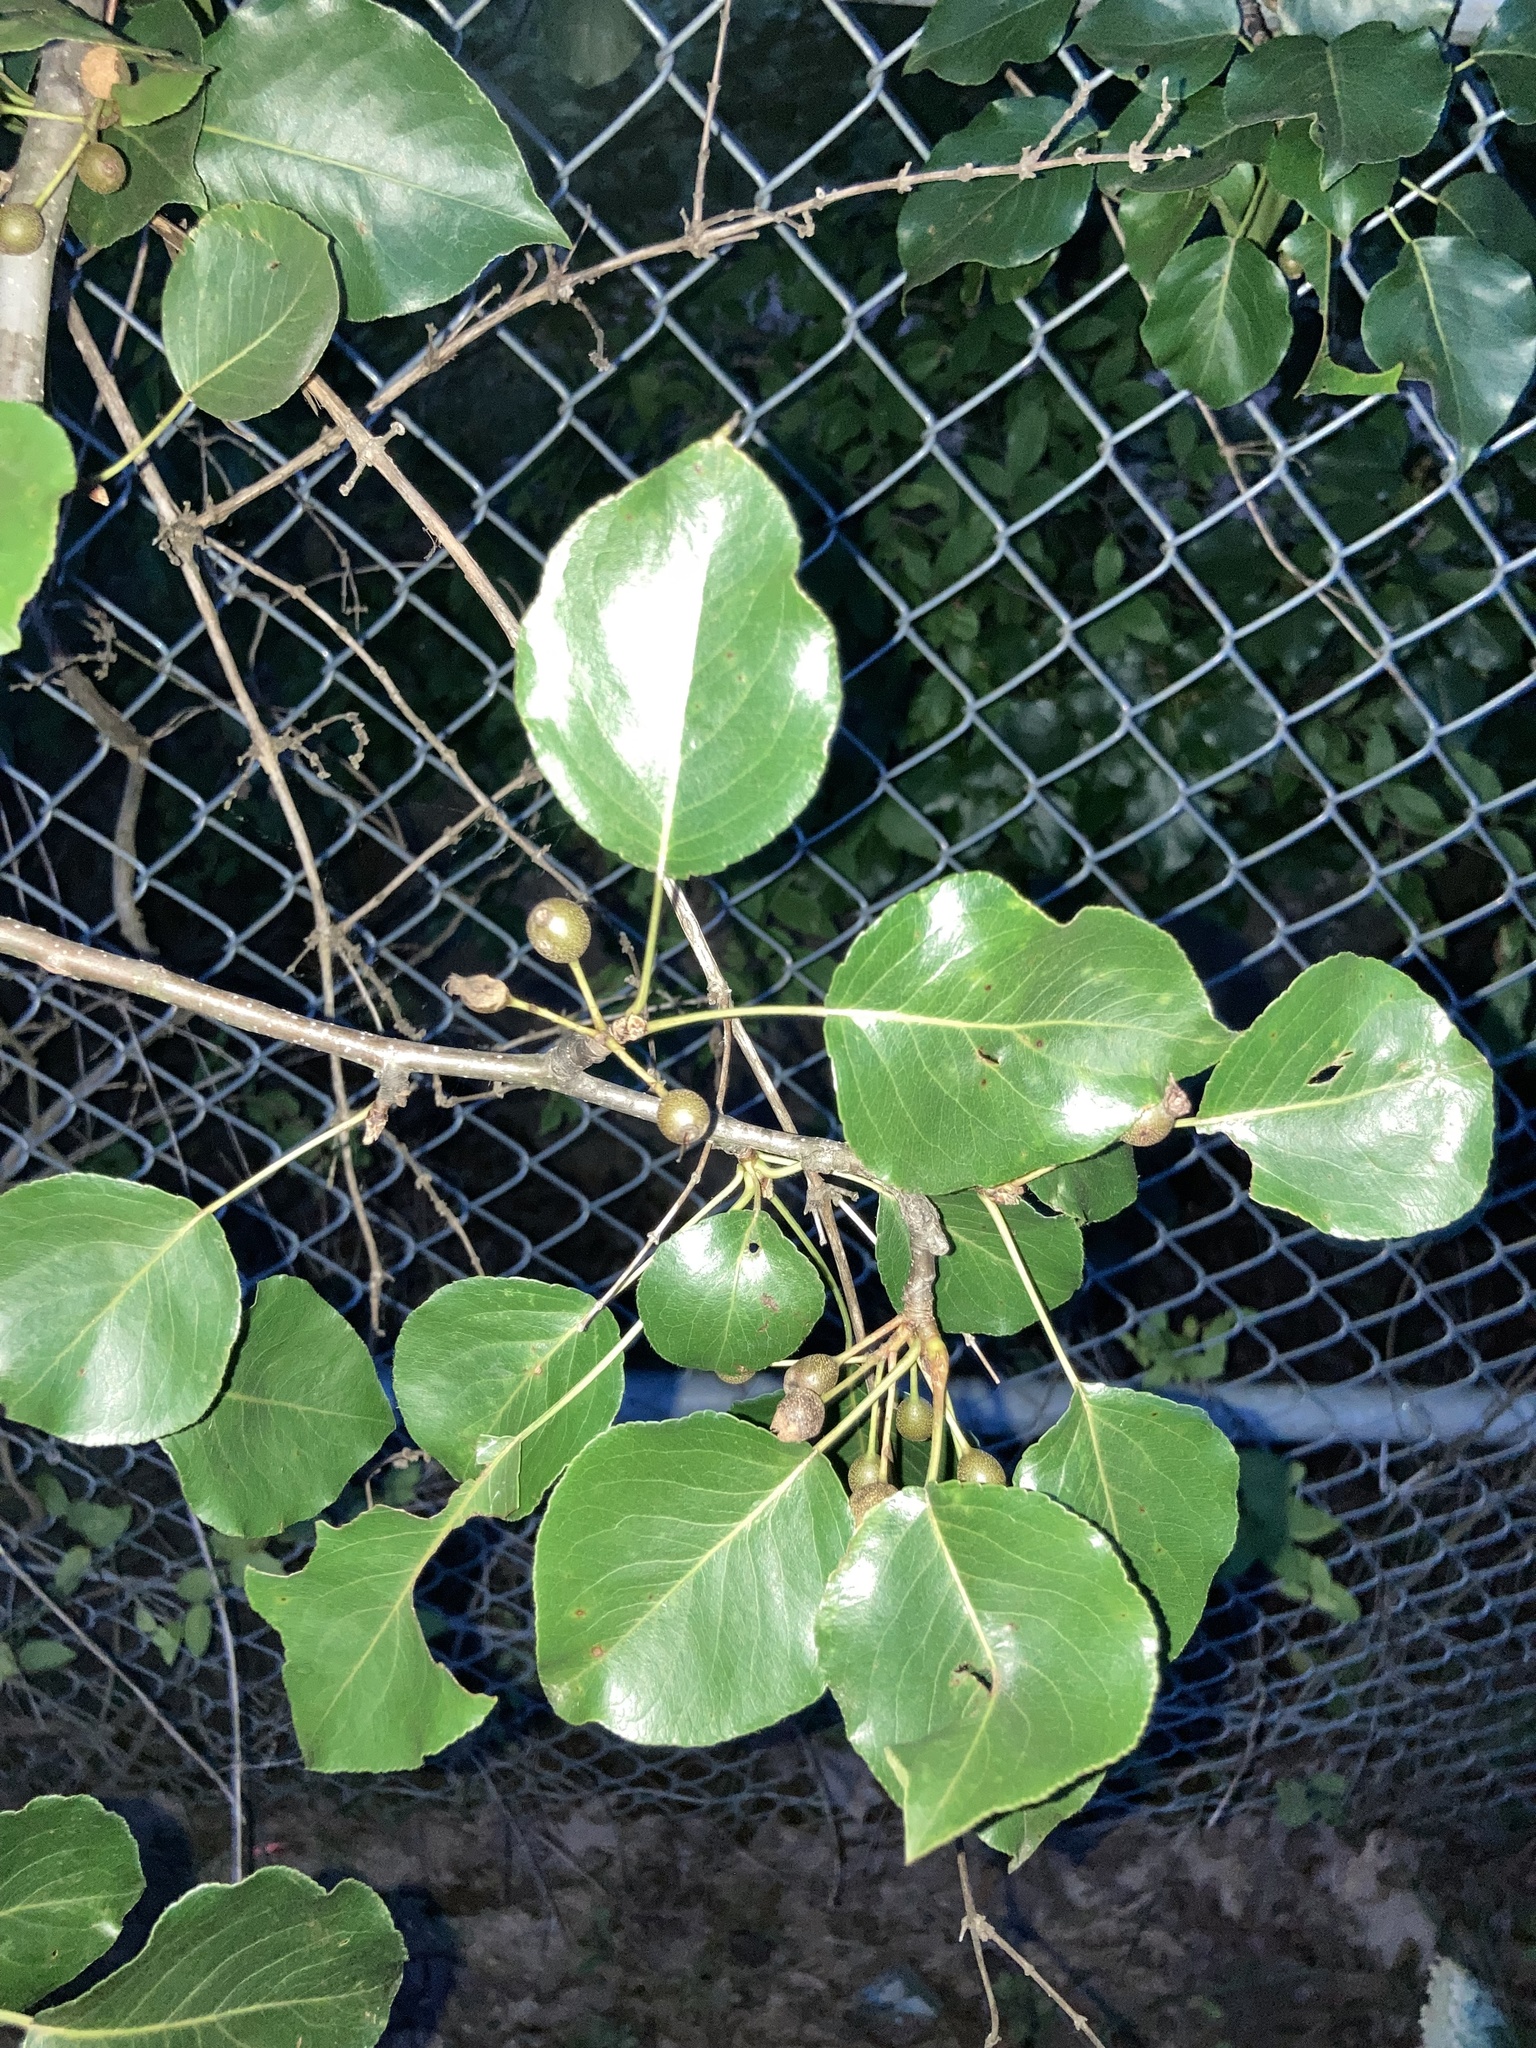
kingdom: Plantae
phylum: Tracheophyta
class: Magnoliopsida
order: Rosales
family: Rosaceae
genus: Pyrus
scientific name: Pyrus calleryana
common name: Callery pear
